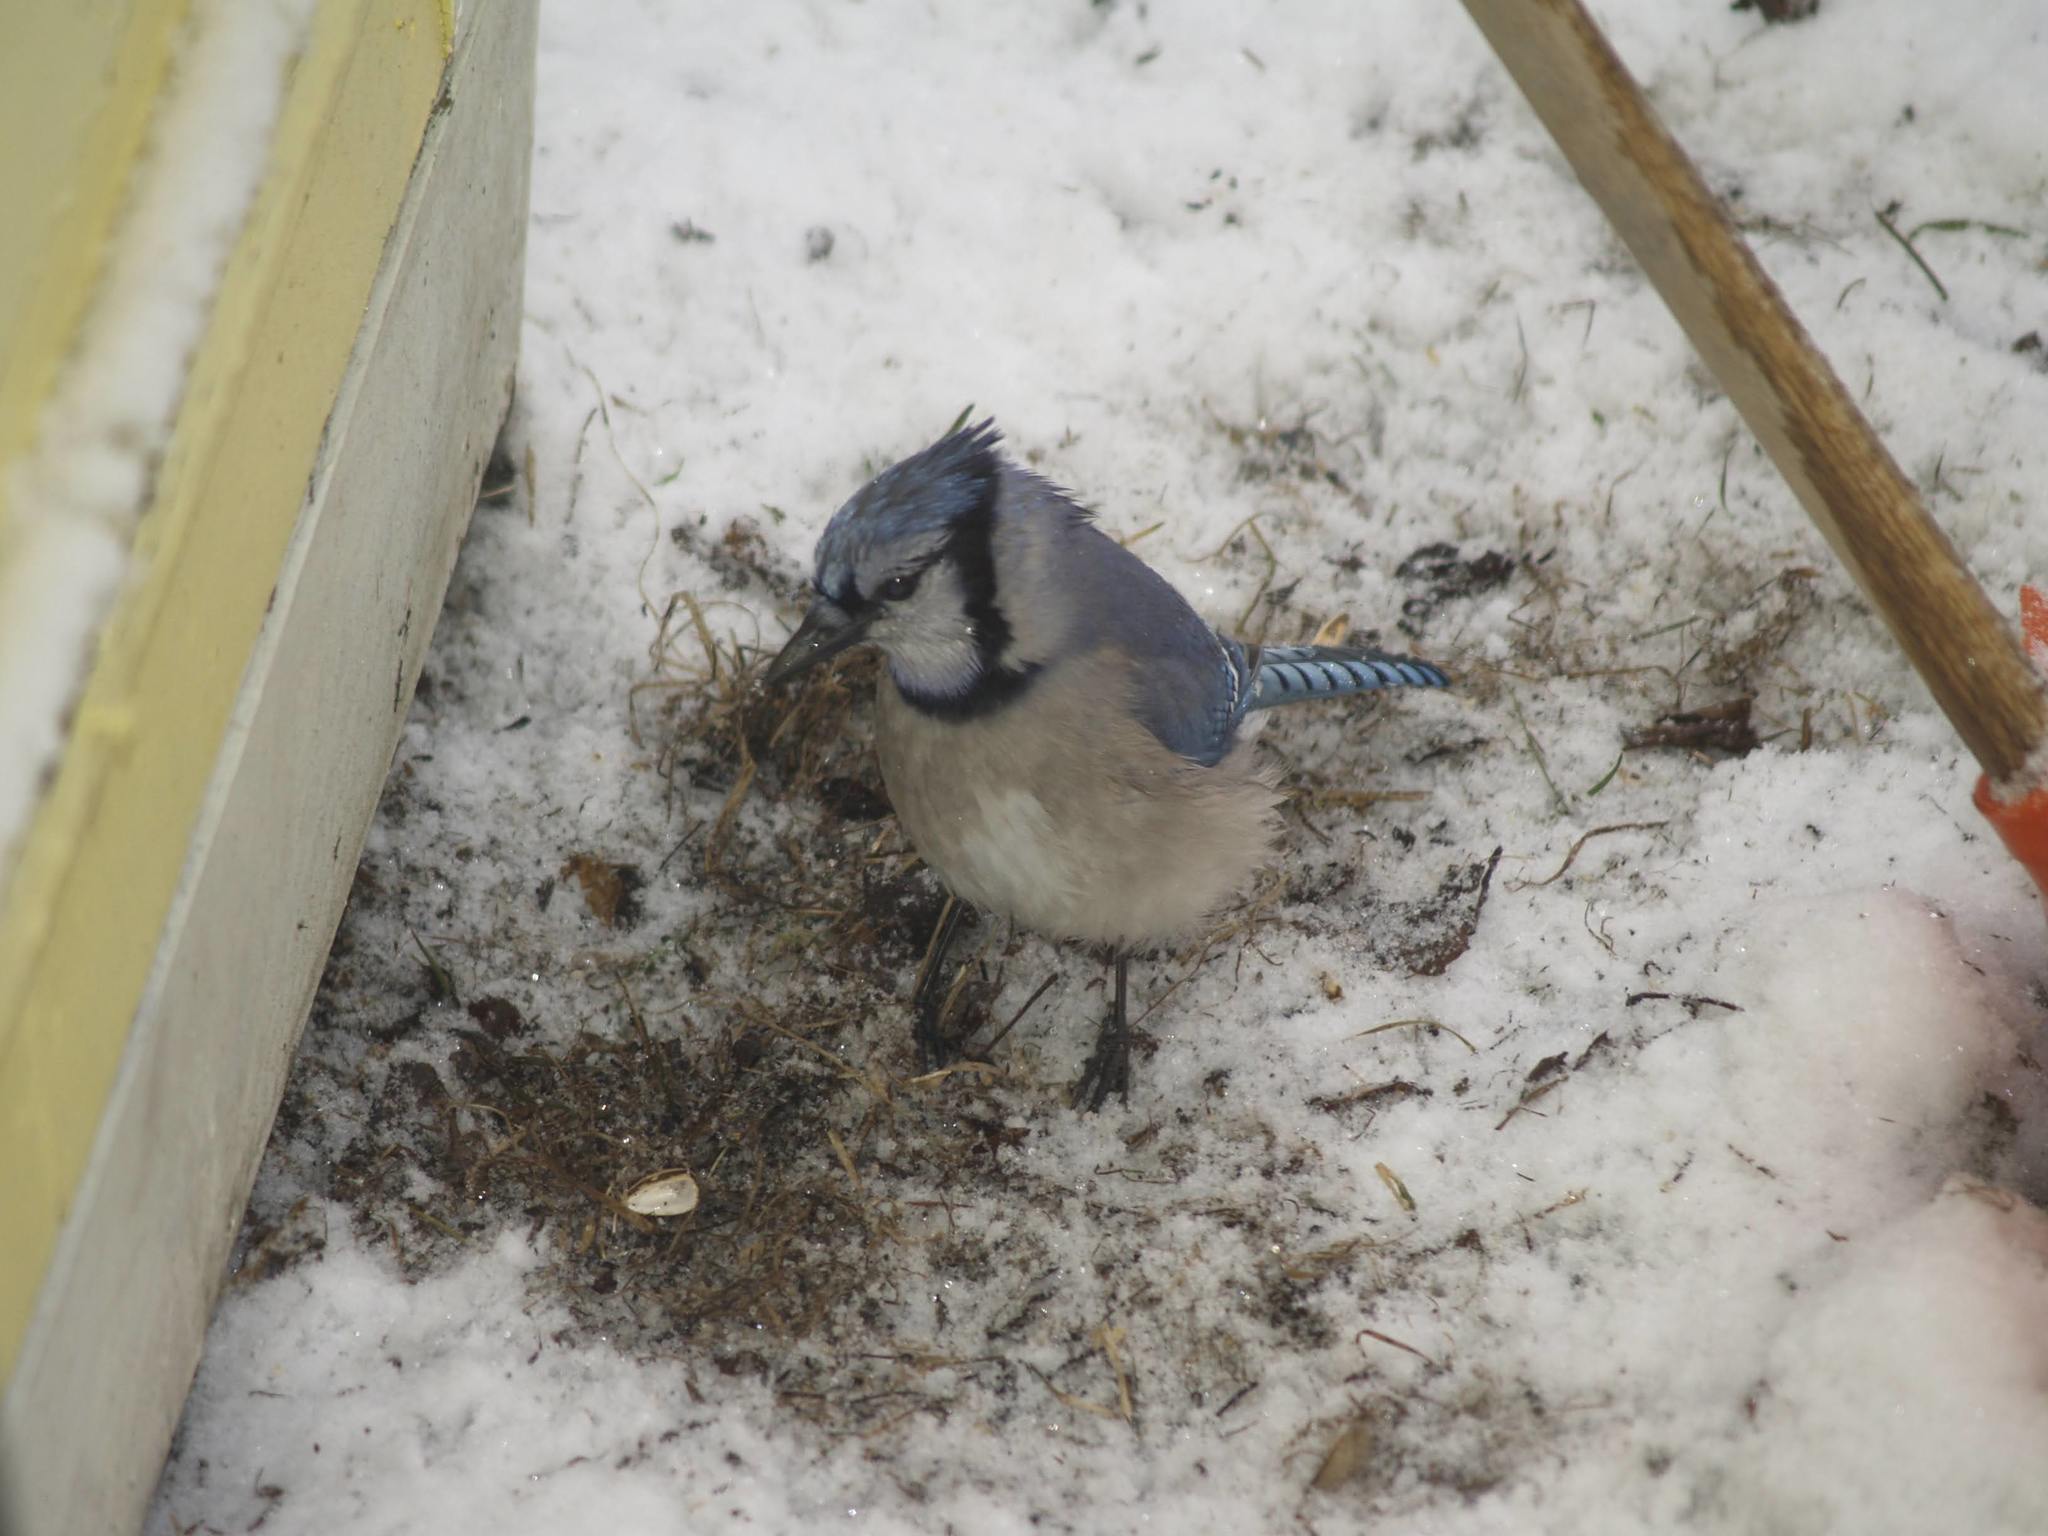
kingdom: Animalia
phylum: Chordata
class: Aves
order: Passeriformes
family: Corvidae
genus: Cyanocitta
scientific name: Cyanocitta cristata
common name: Blue jay
